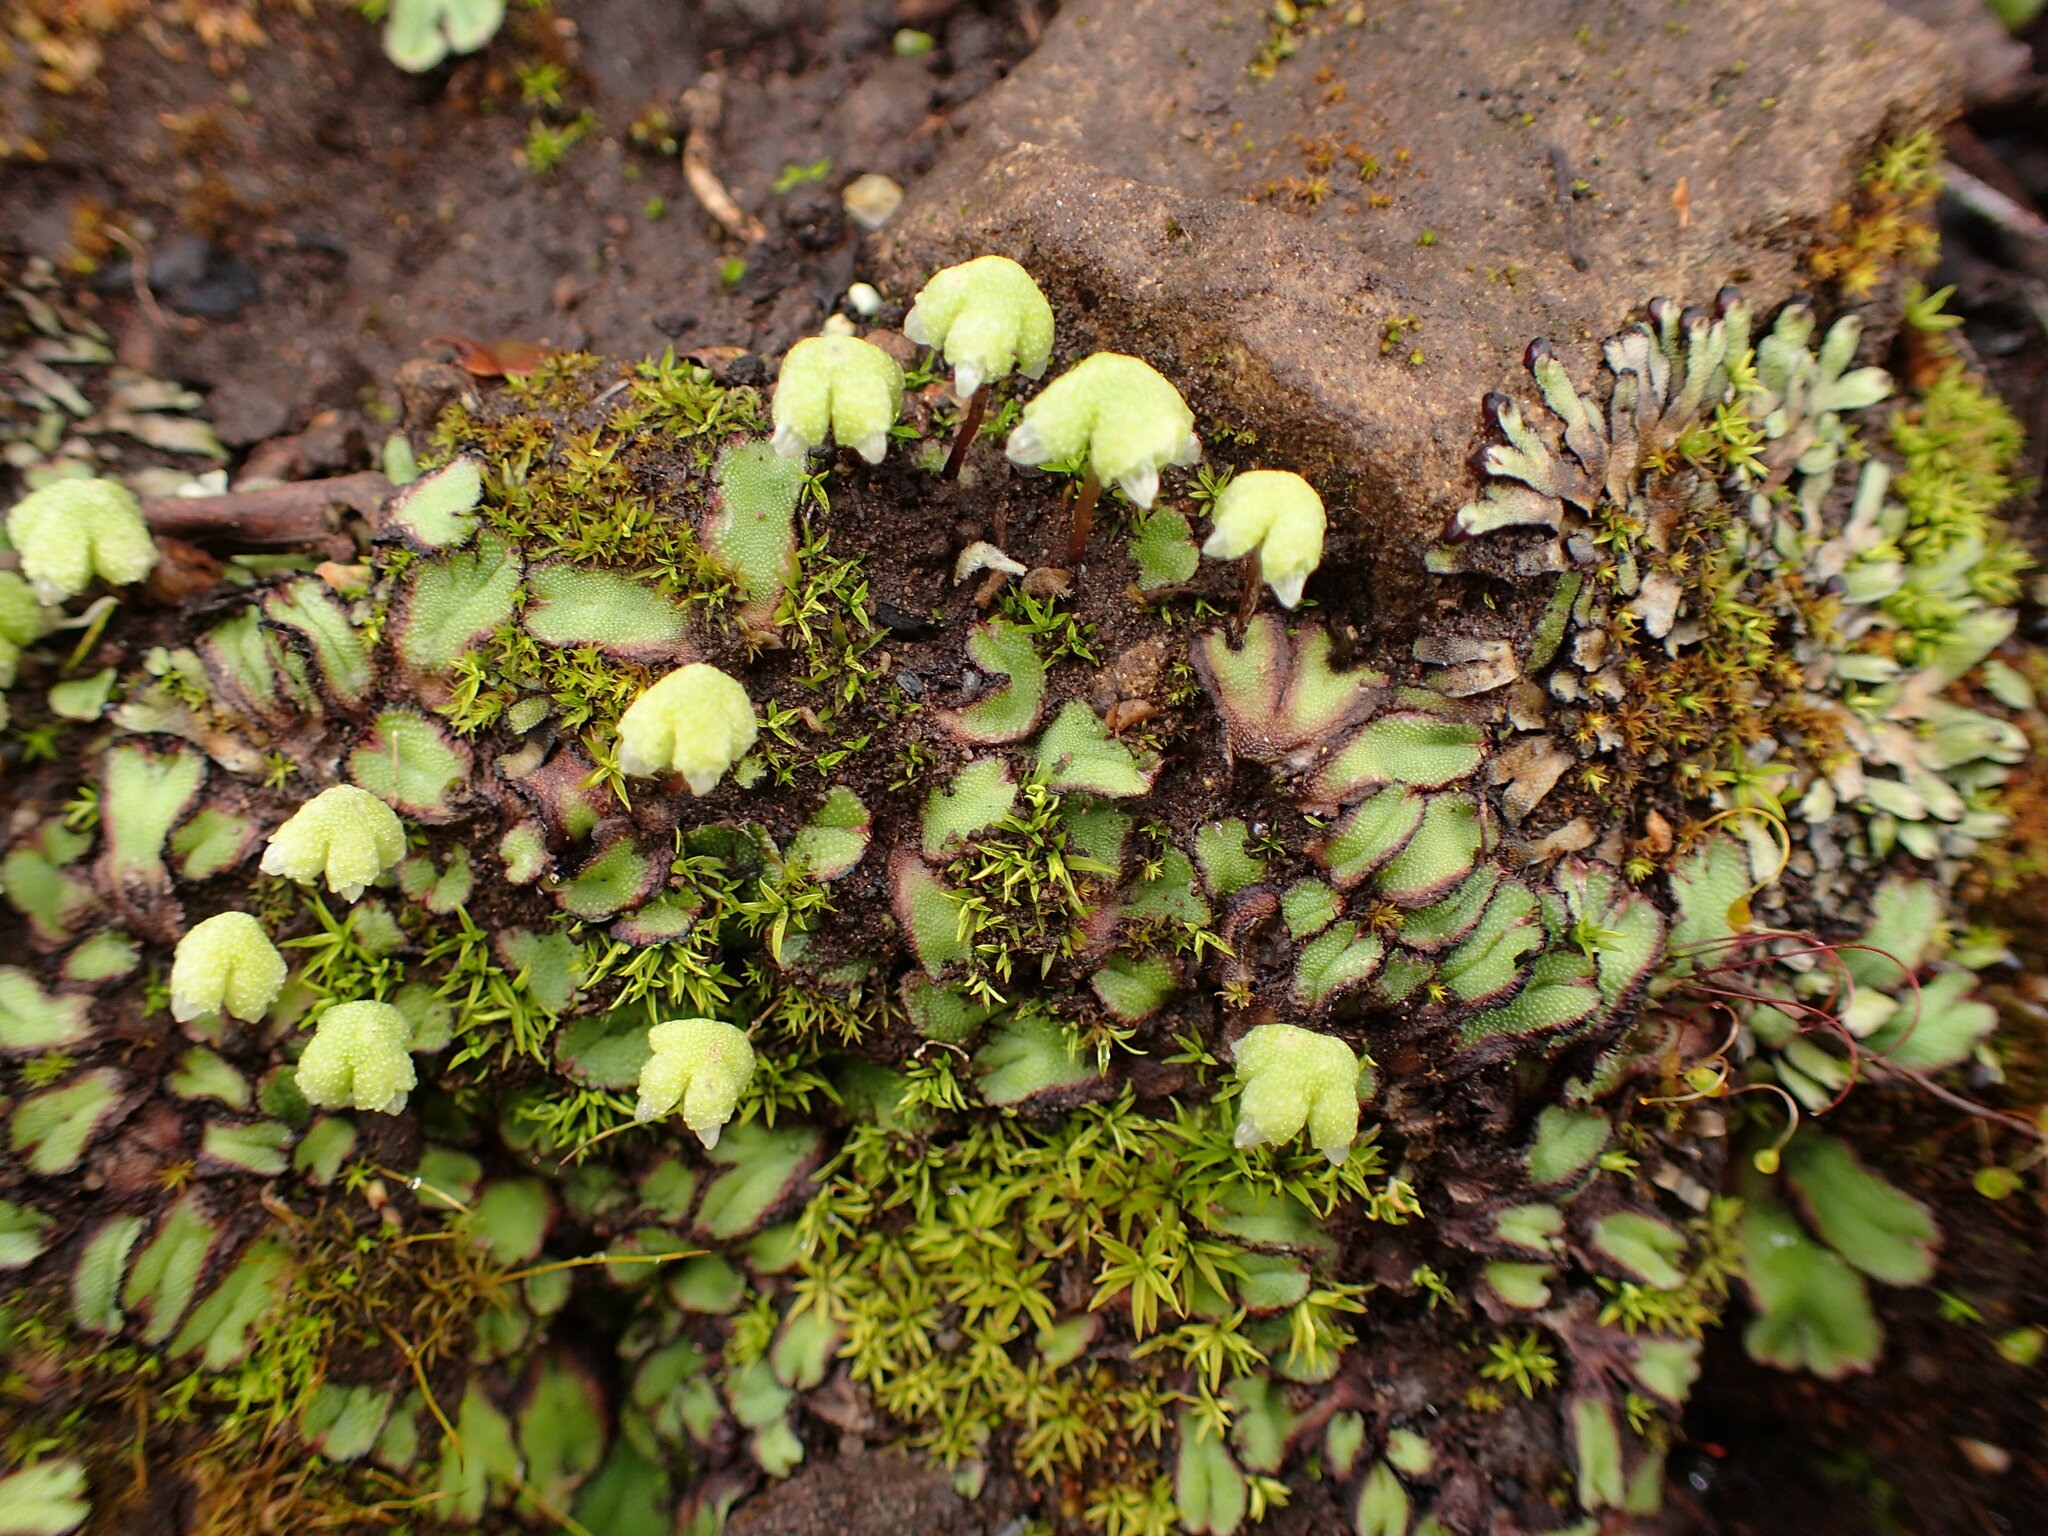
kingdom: Plantae
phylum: Marchantiophyta
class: Marchantiopsida
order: Marchantiales
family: Aytoniaceae
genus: Asterella
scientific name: Asterella californica
